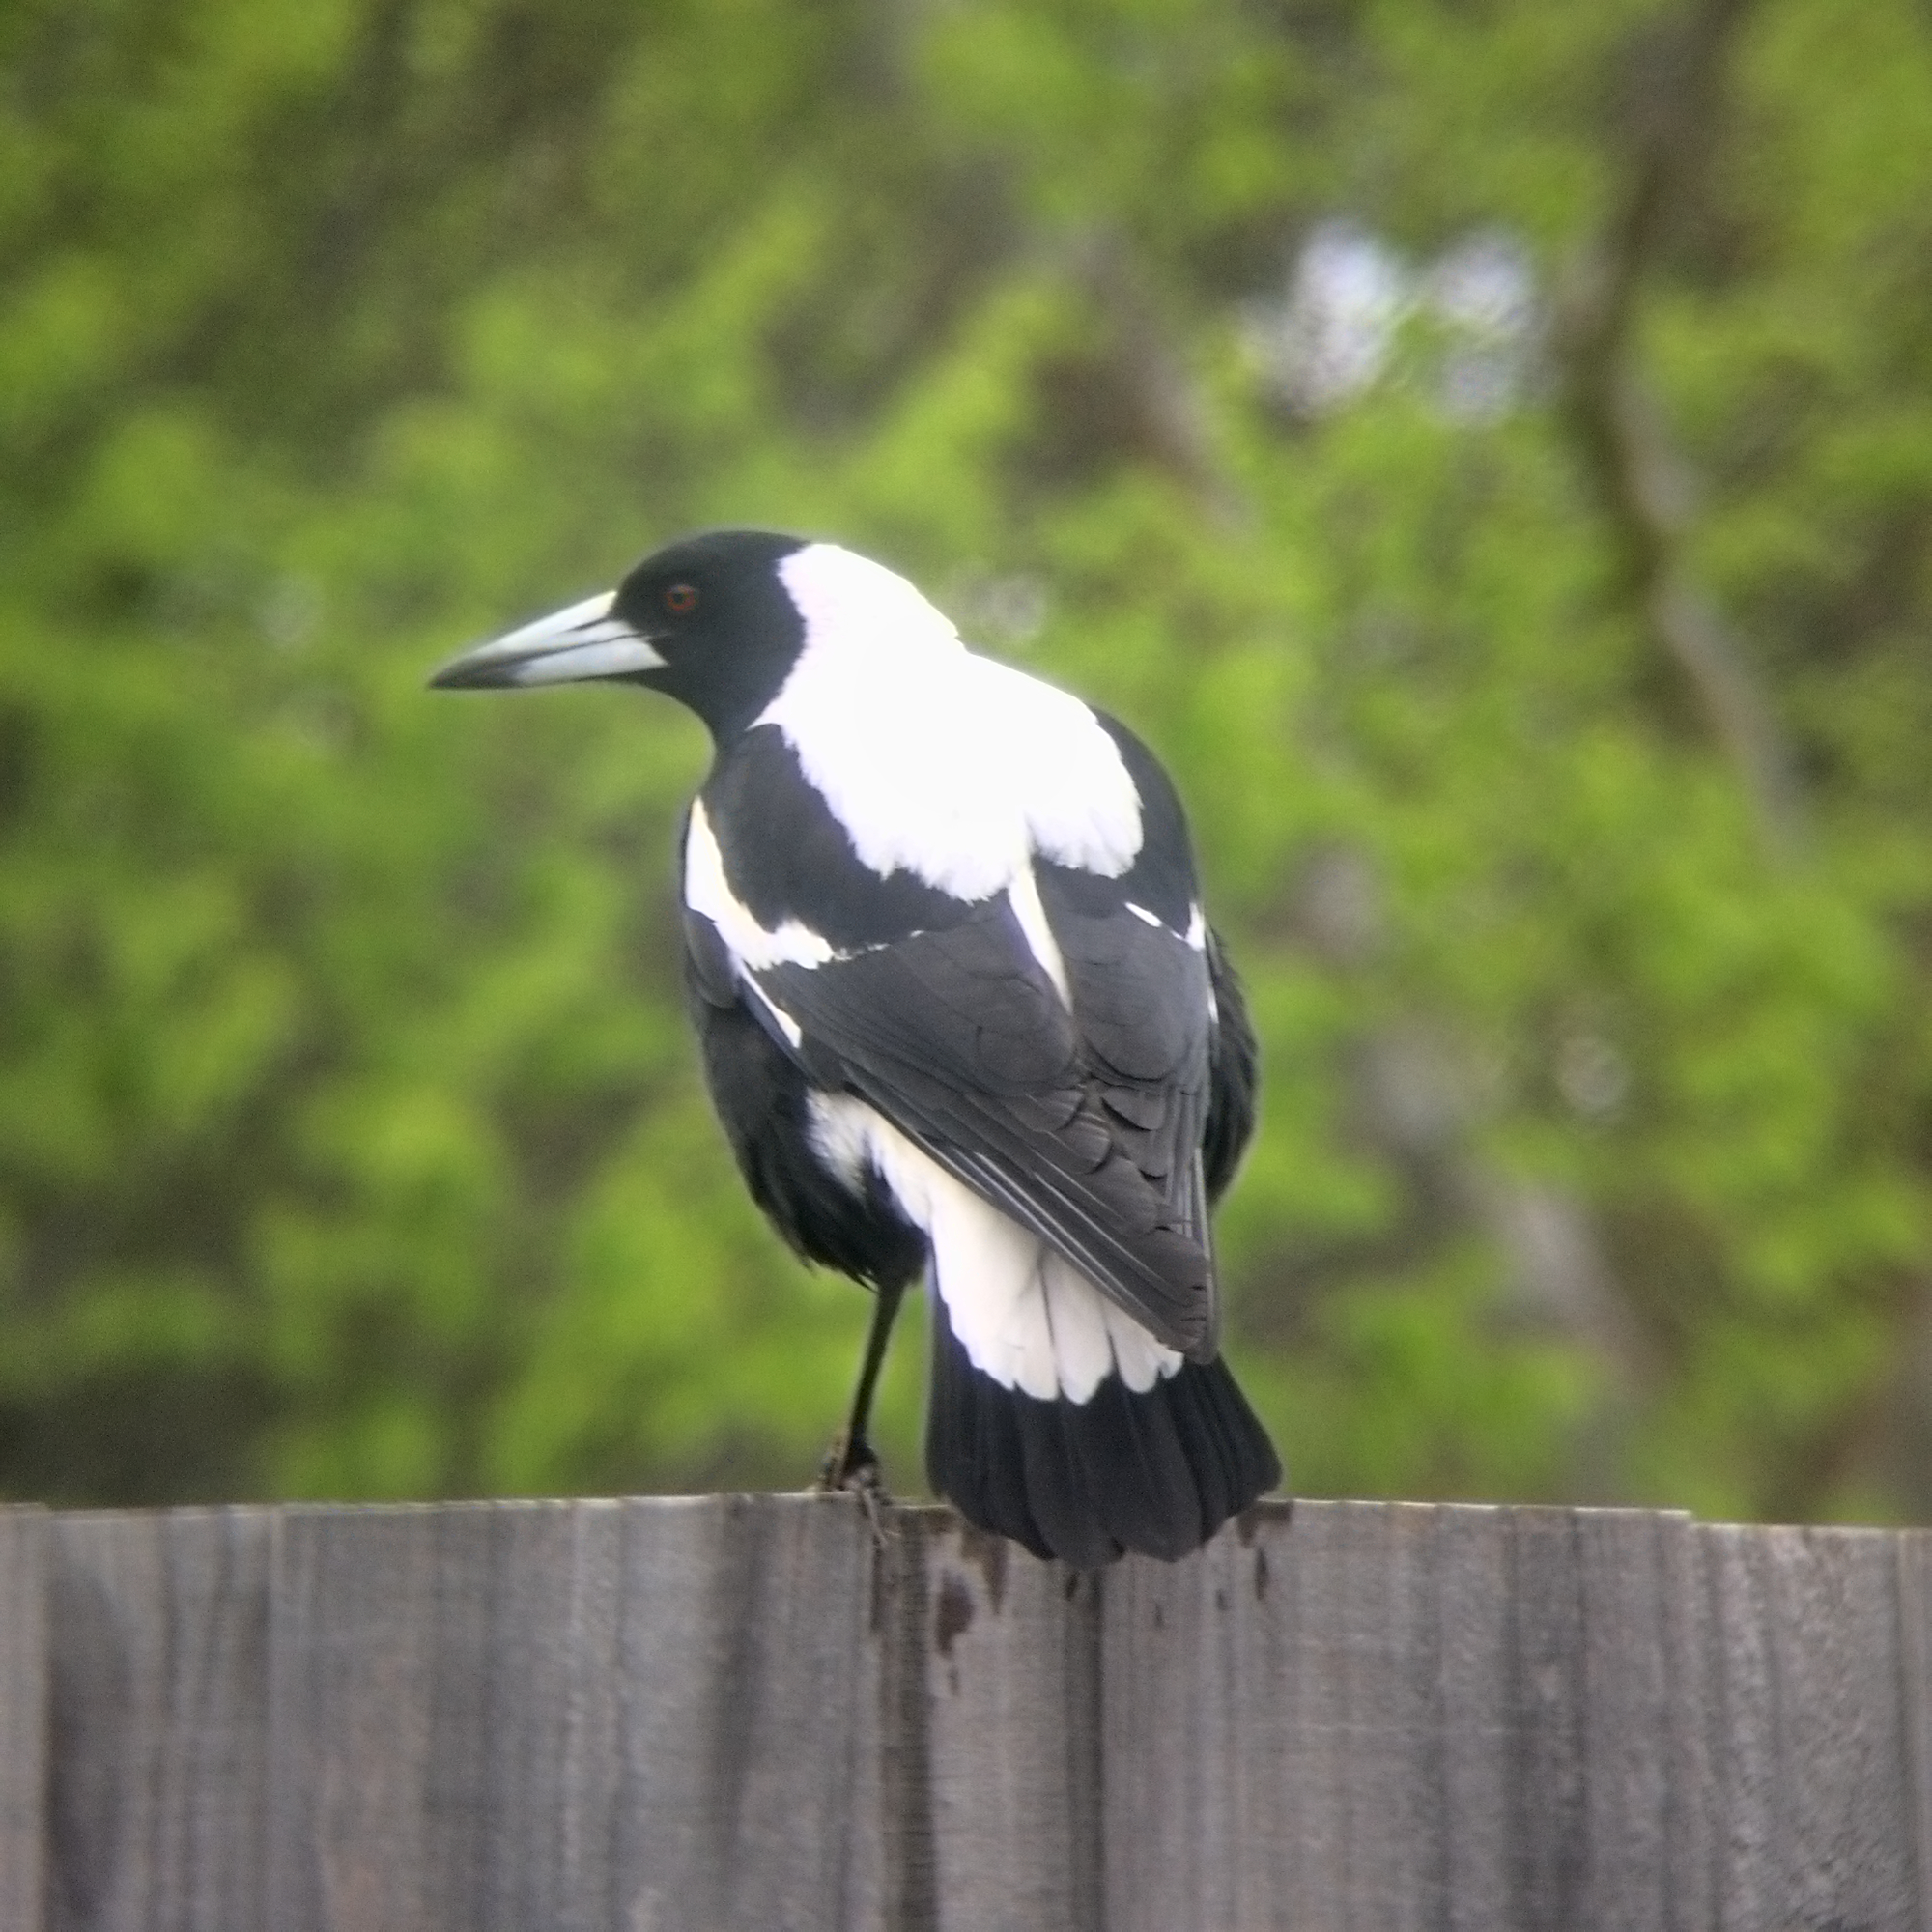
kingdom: Animalia
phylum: Chordata
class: Aves
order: Passeriformes
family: Cracticidae
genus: Gymnorhina
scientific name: Gymnorhina tibicen
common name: Australian magpie
